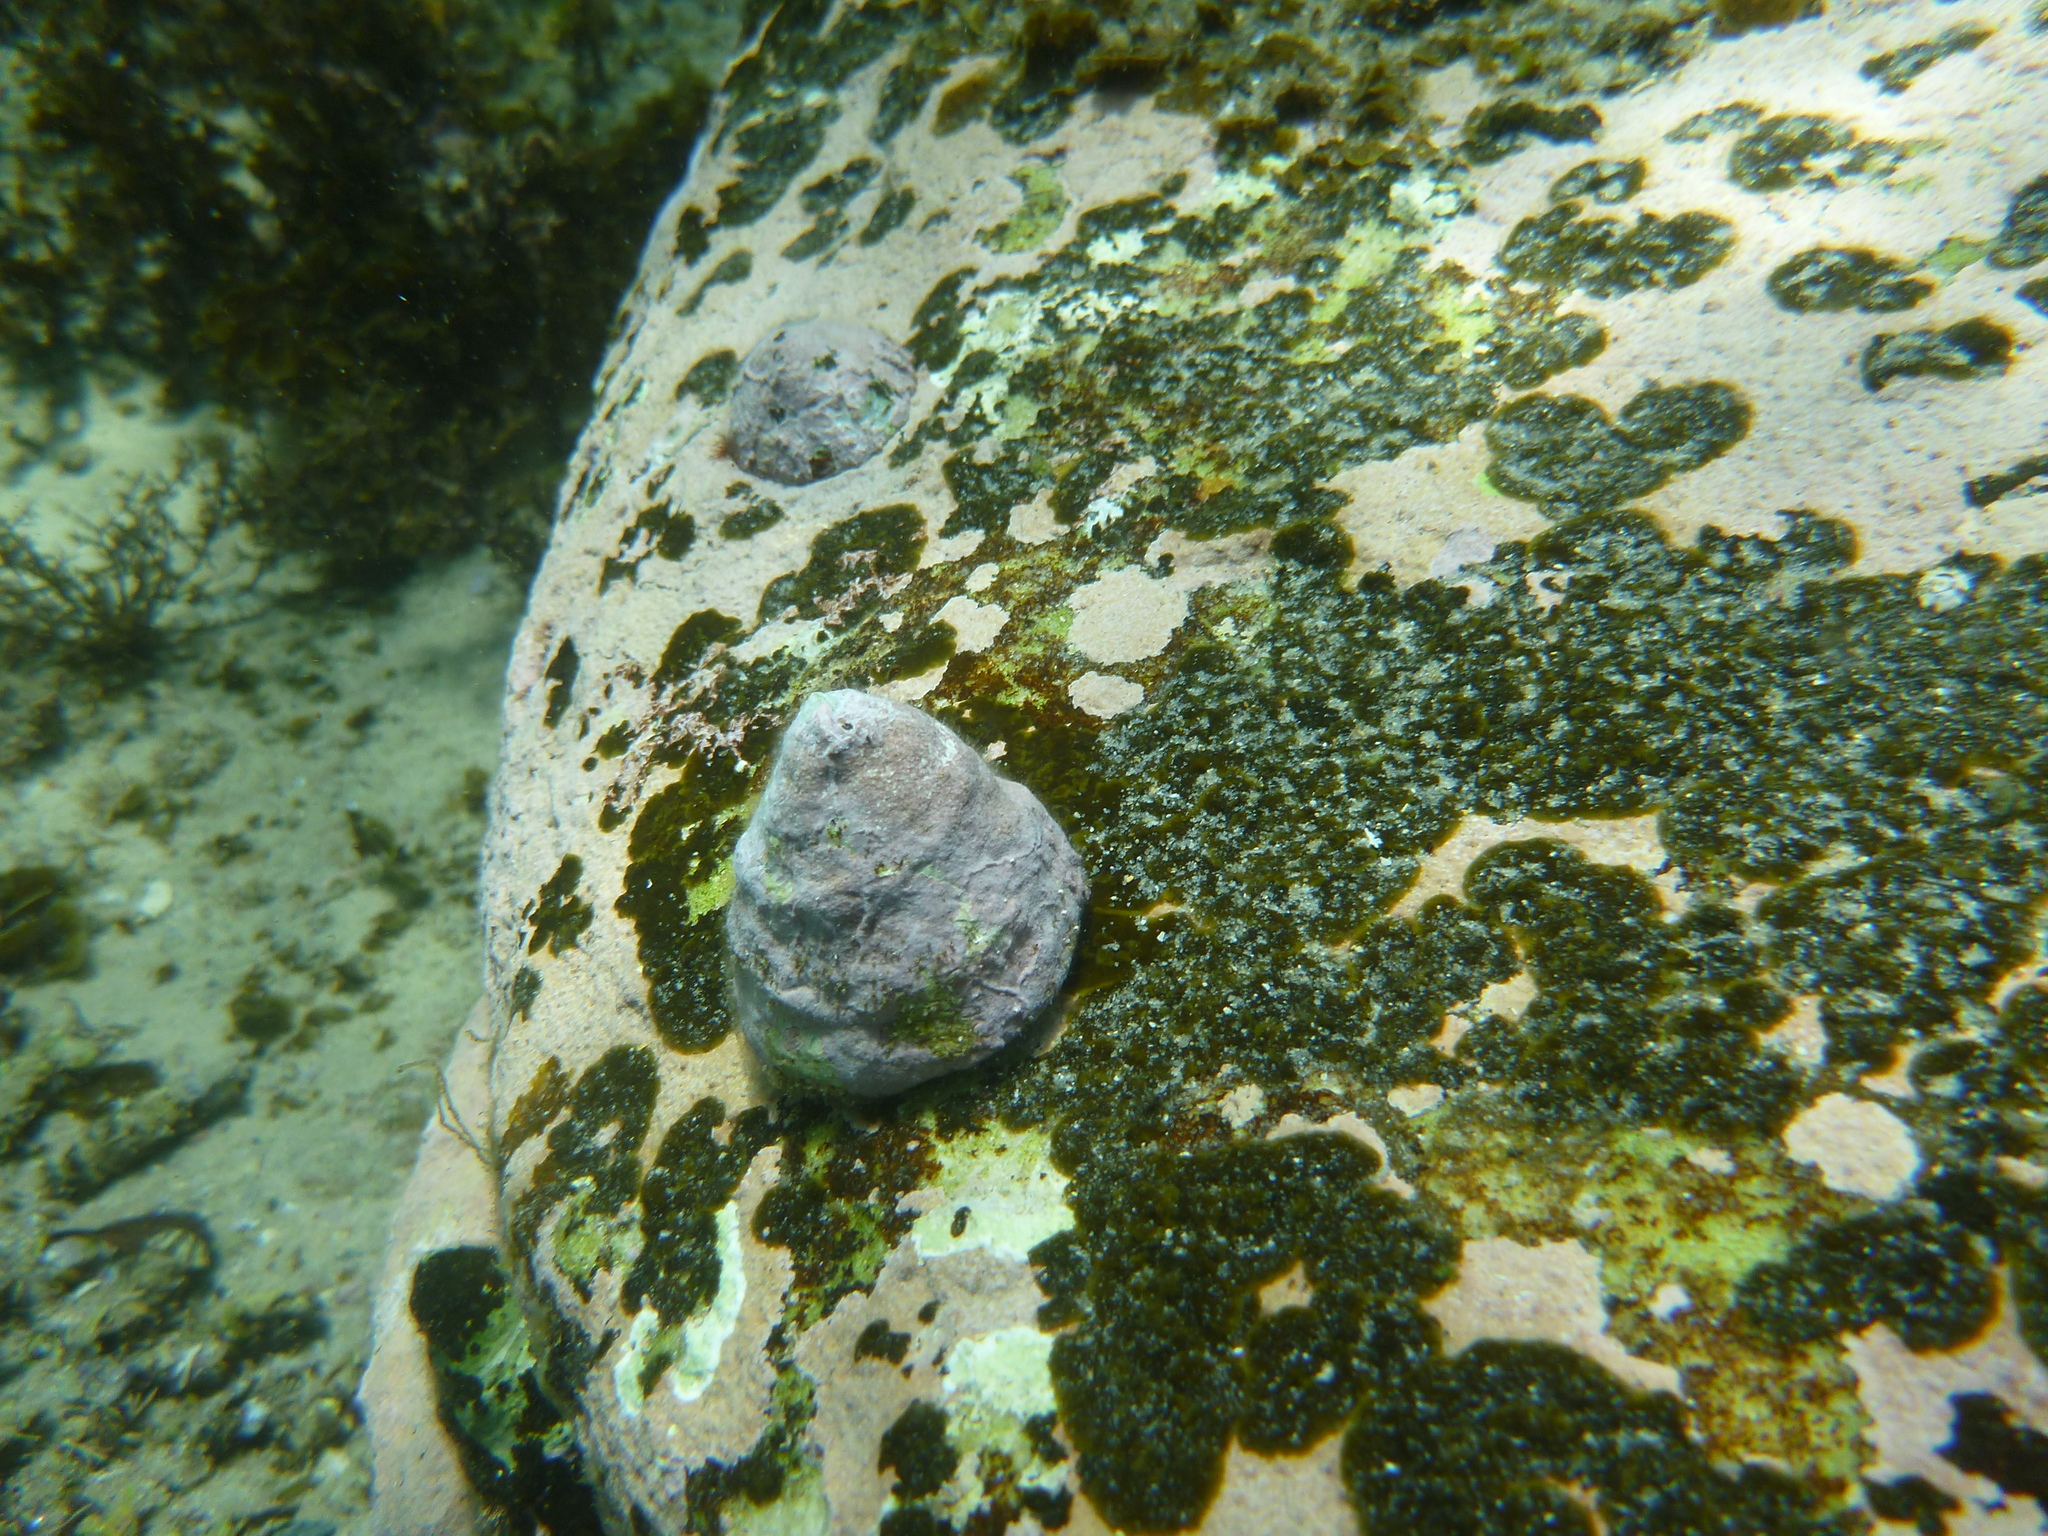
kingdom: Animalia
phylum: Mollusca
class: Gastropoda
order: Trochida
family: Turbinidae
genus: Astralium
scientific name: Astralium tentoriiforme
